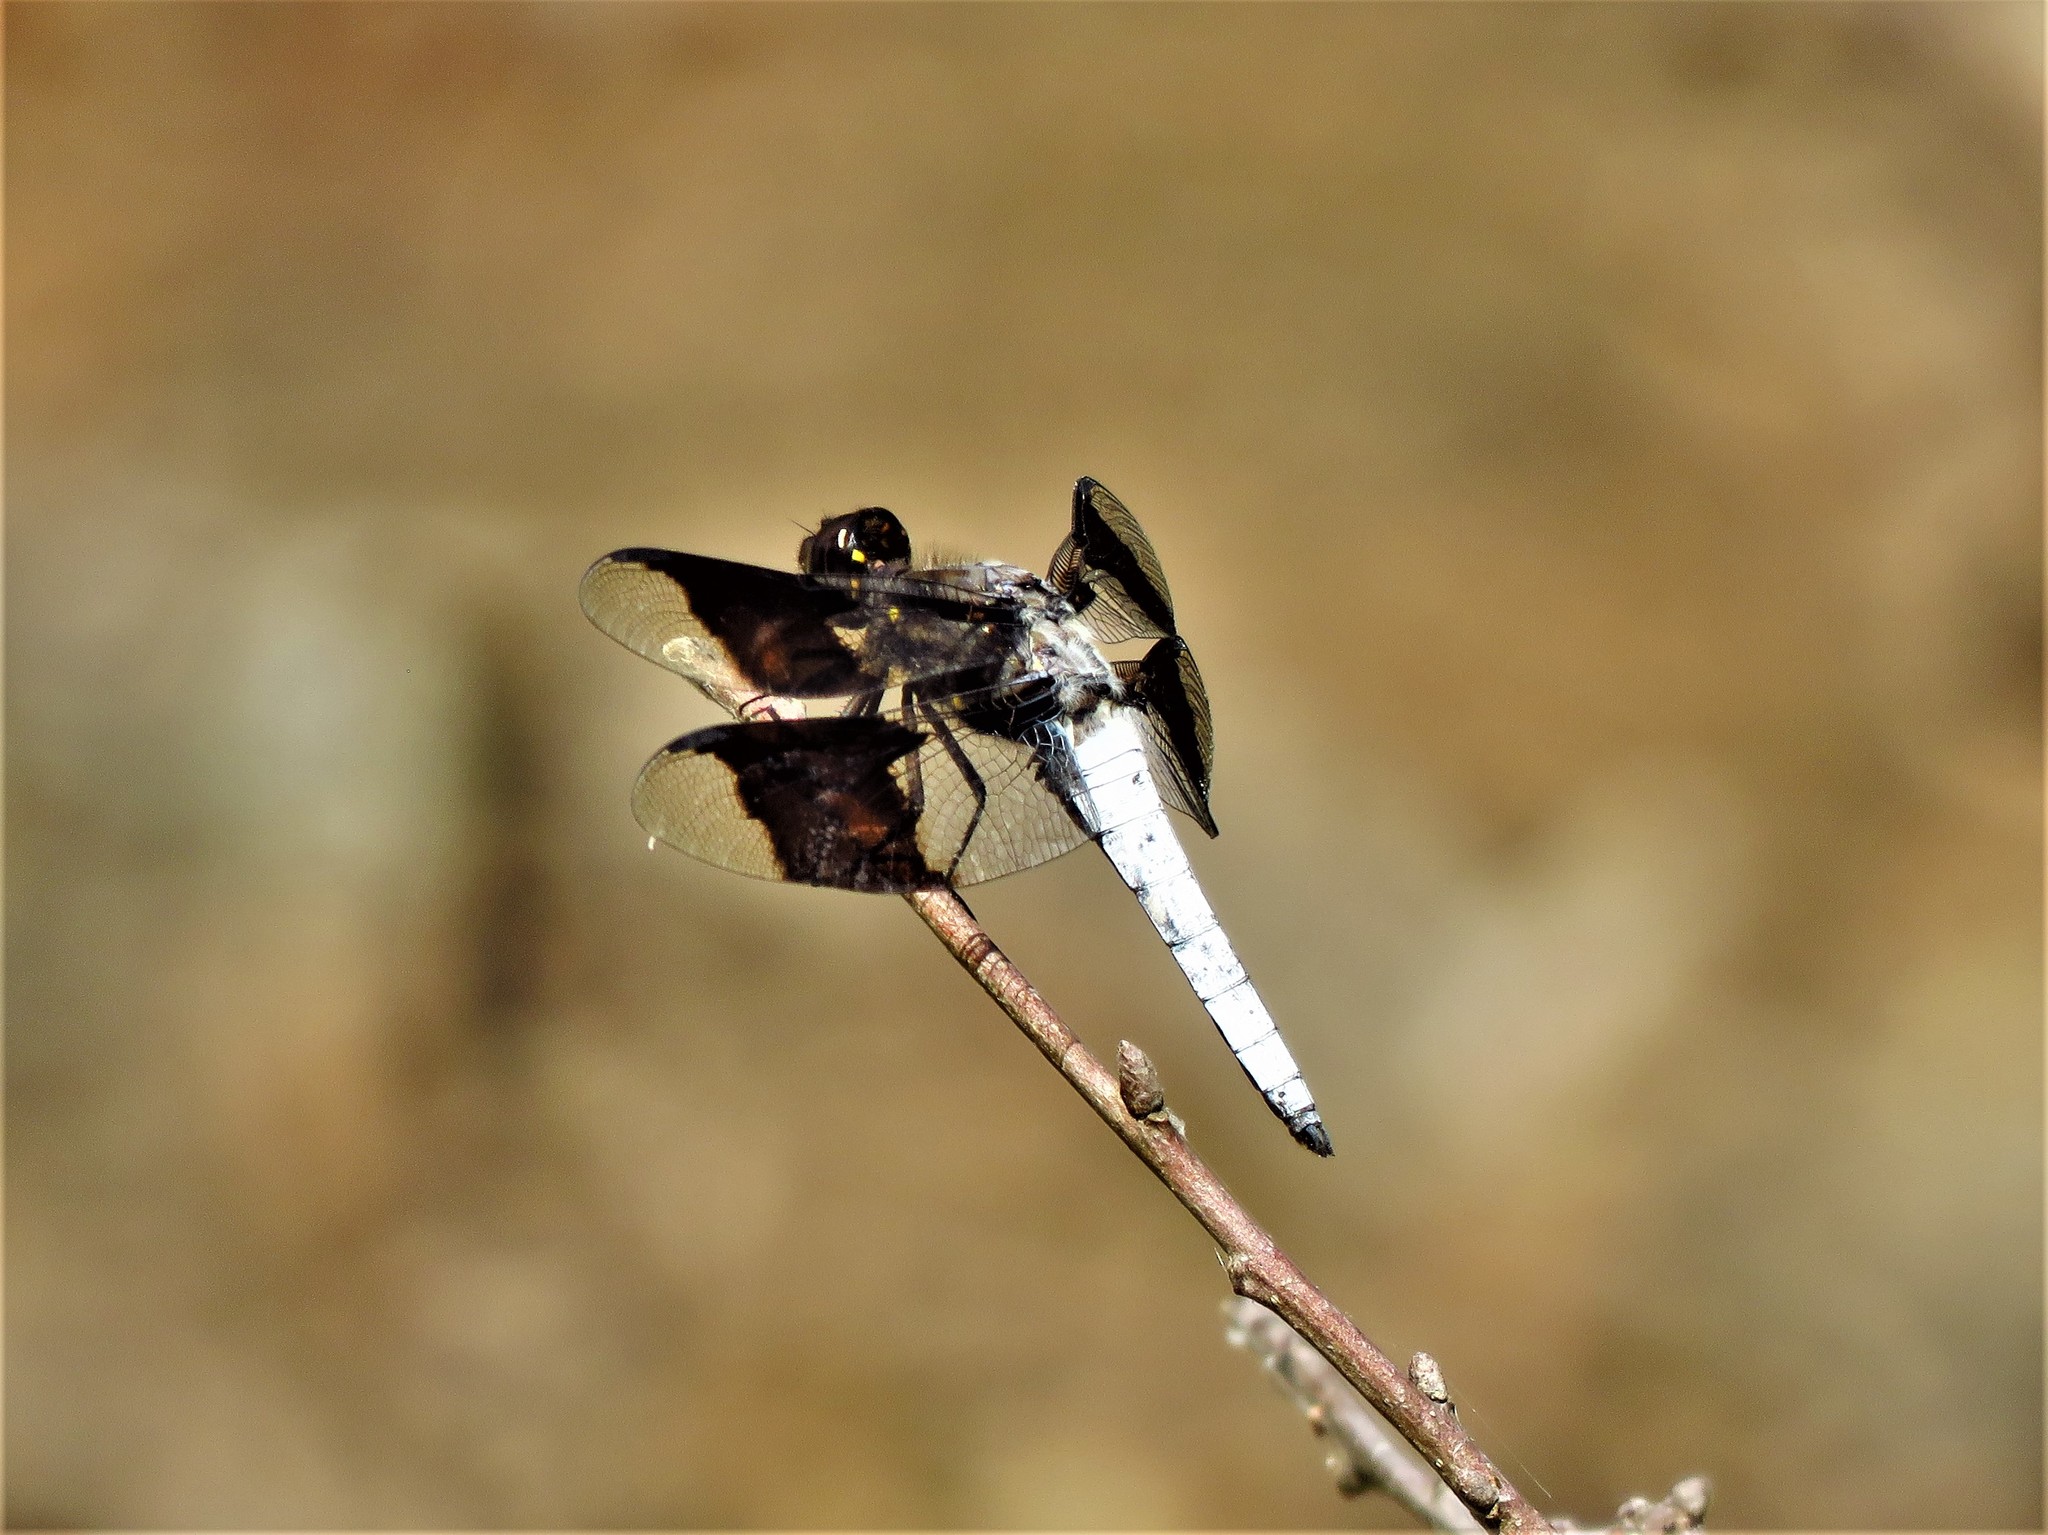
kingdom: Animalia
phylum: Arthropoda
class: Insecta
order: Odonata
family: Libellulidae
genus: Plathemis
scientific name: Plathemis lydia
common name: Common whitetail
